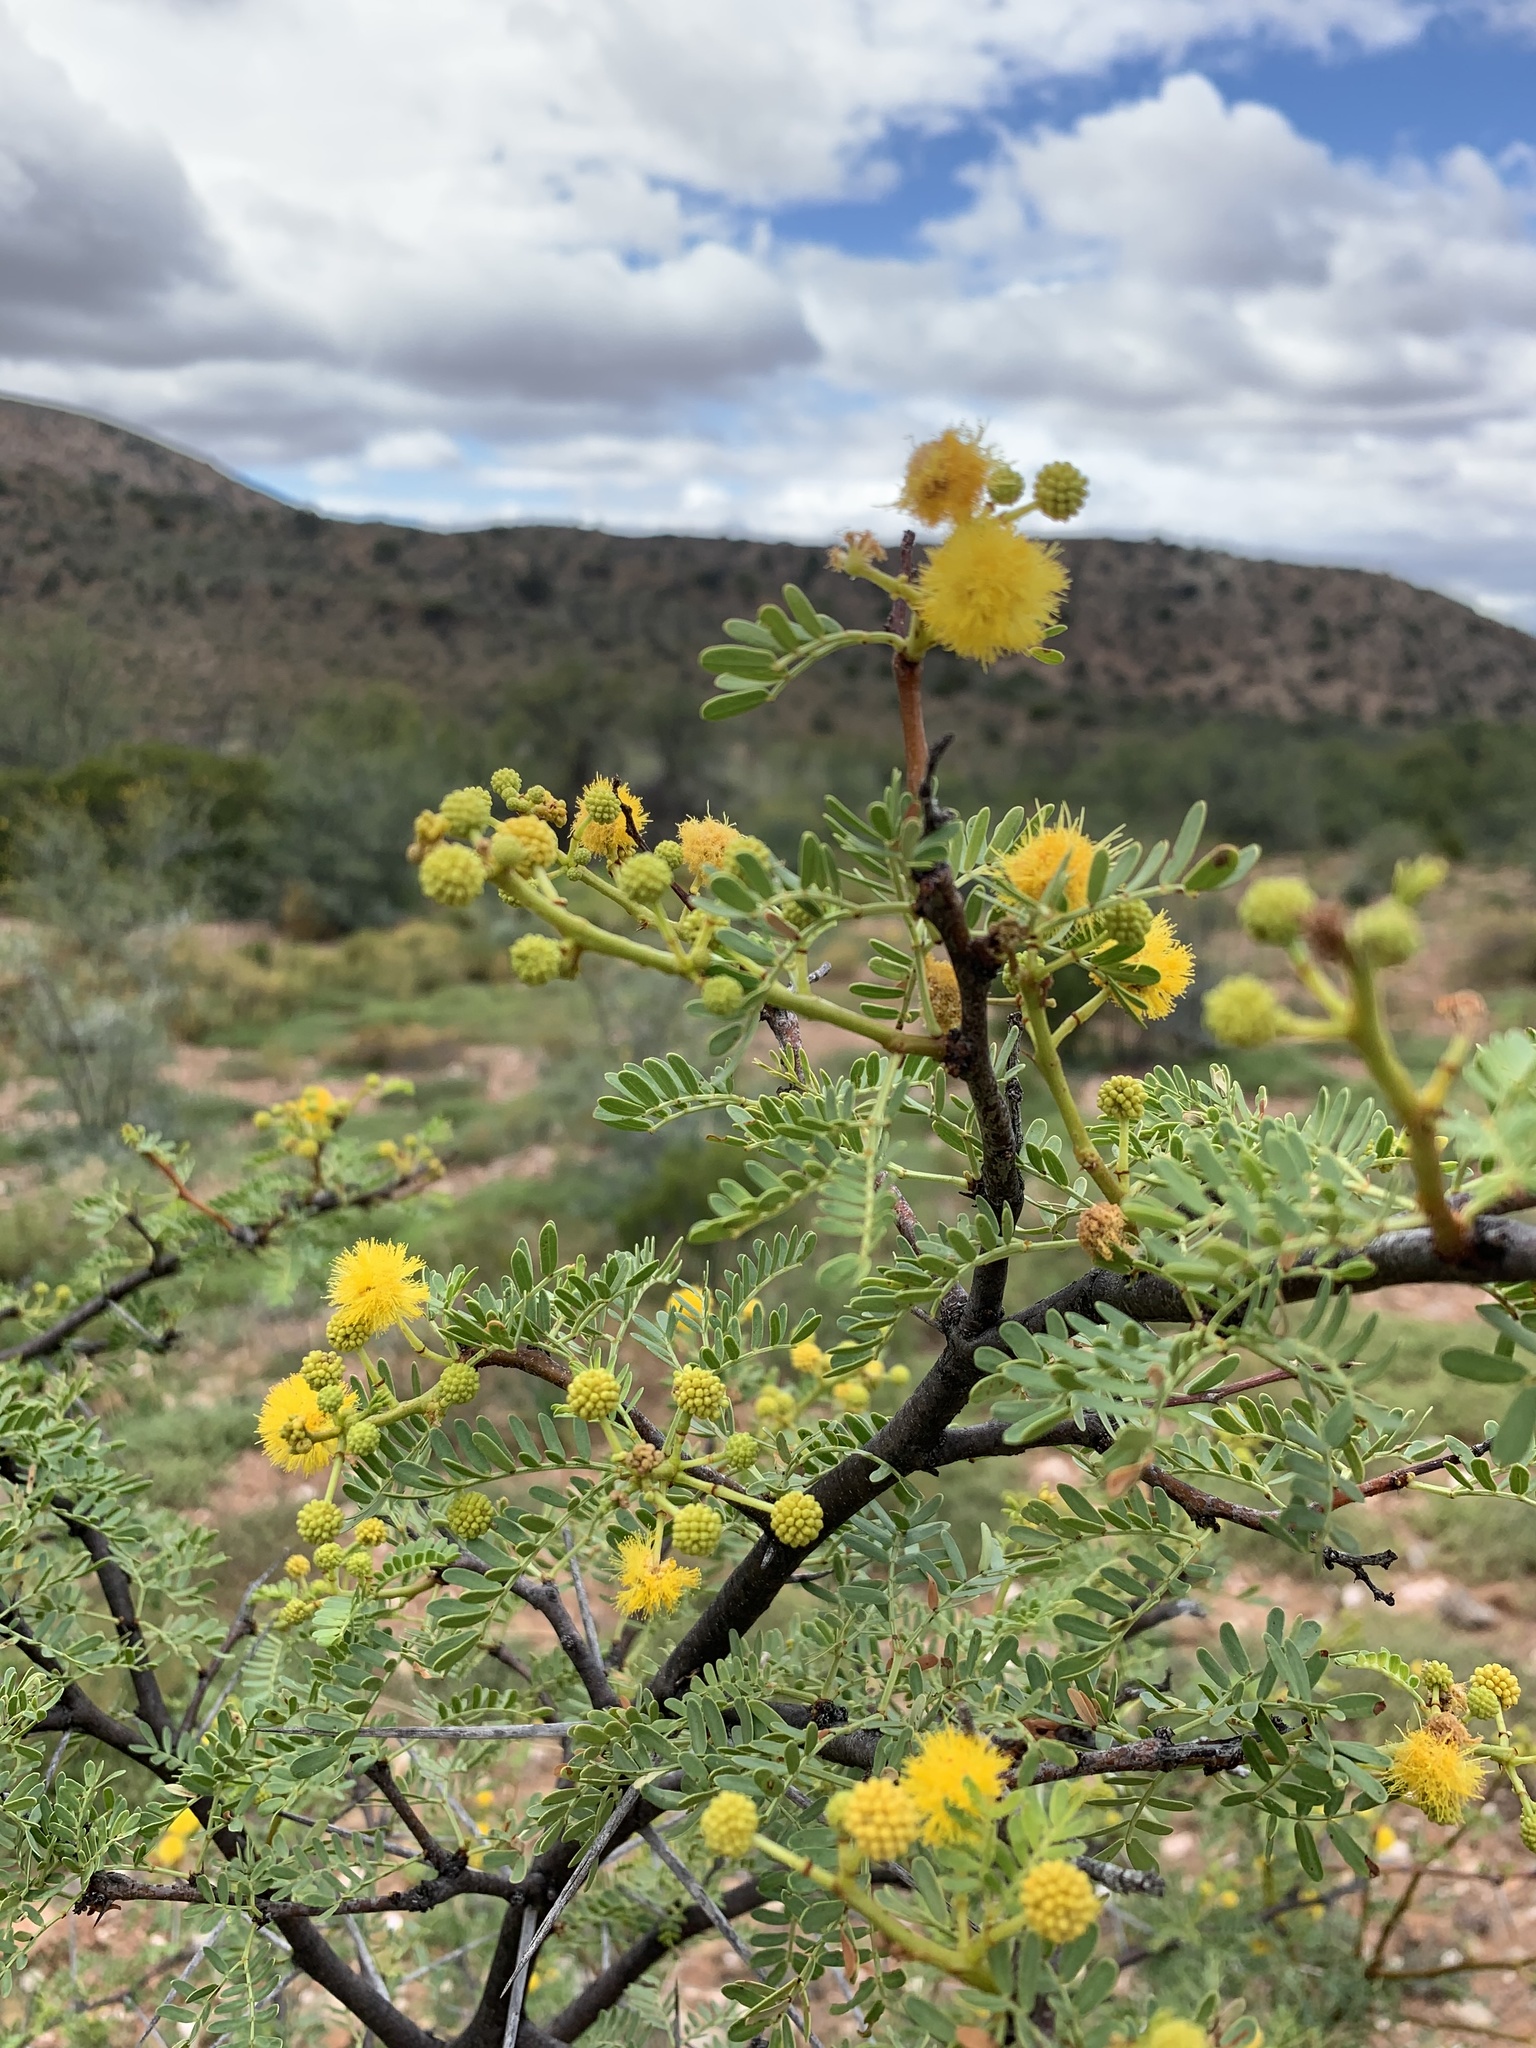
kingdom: Plantae
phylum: Tracheophyta
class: Magnoliopsida
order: Fabales
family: Fabaceae
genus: Vachellia
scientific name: Vachellia karroo
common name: Sweet thorn
